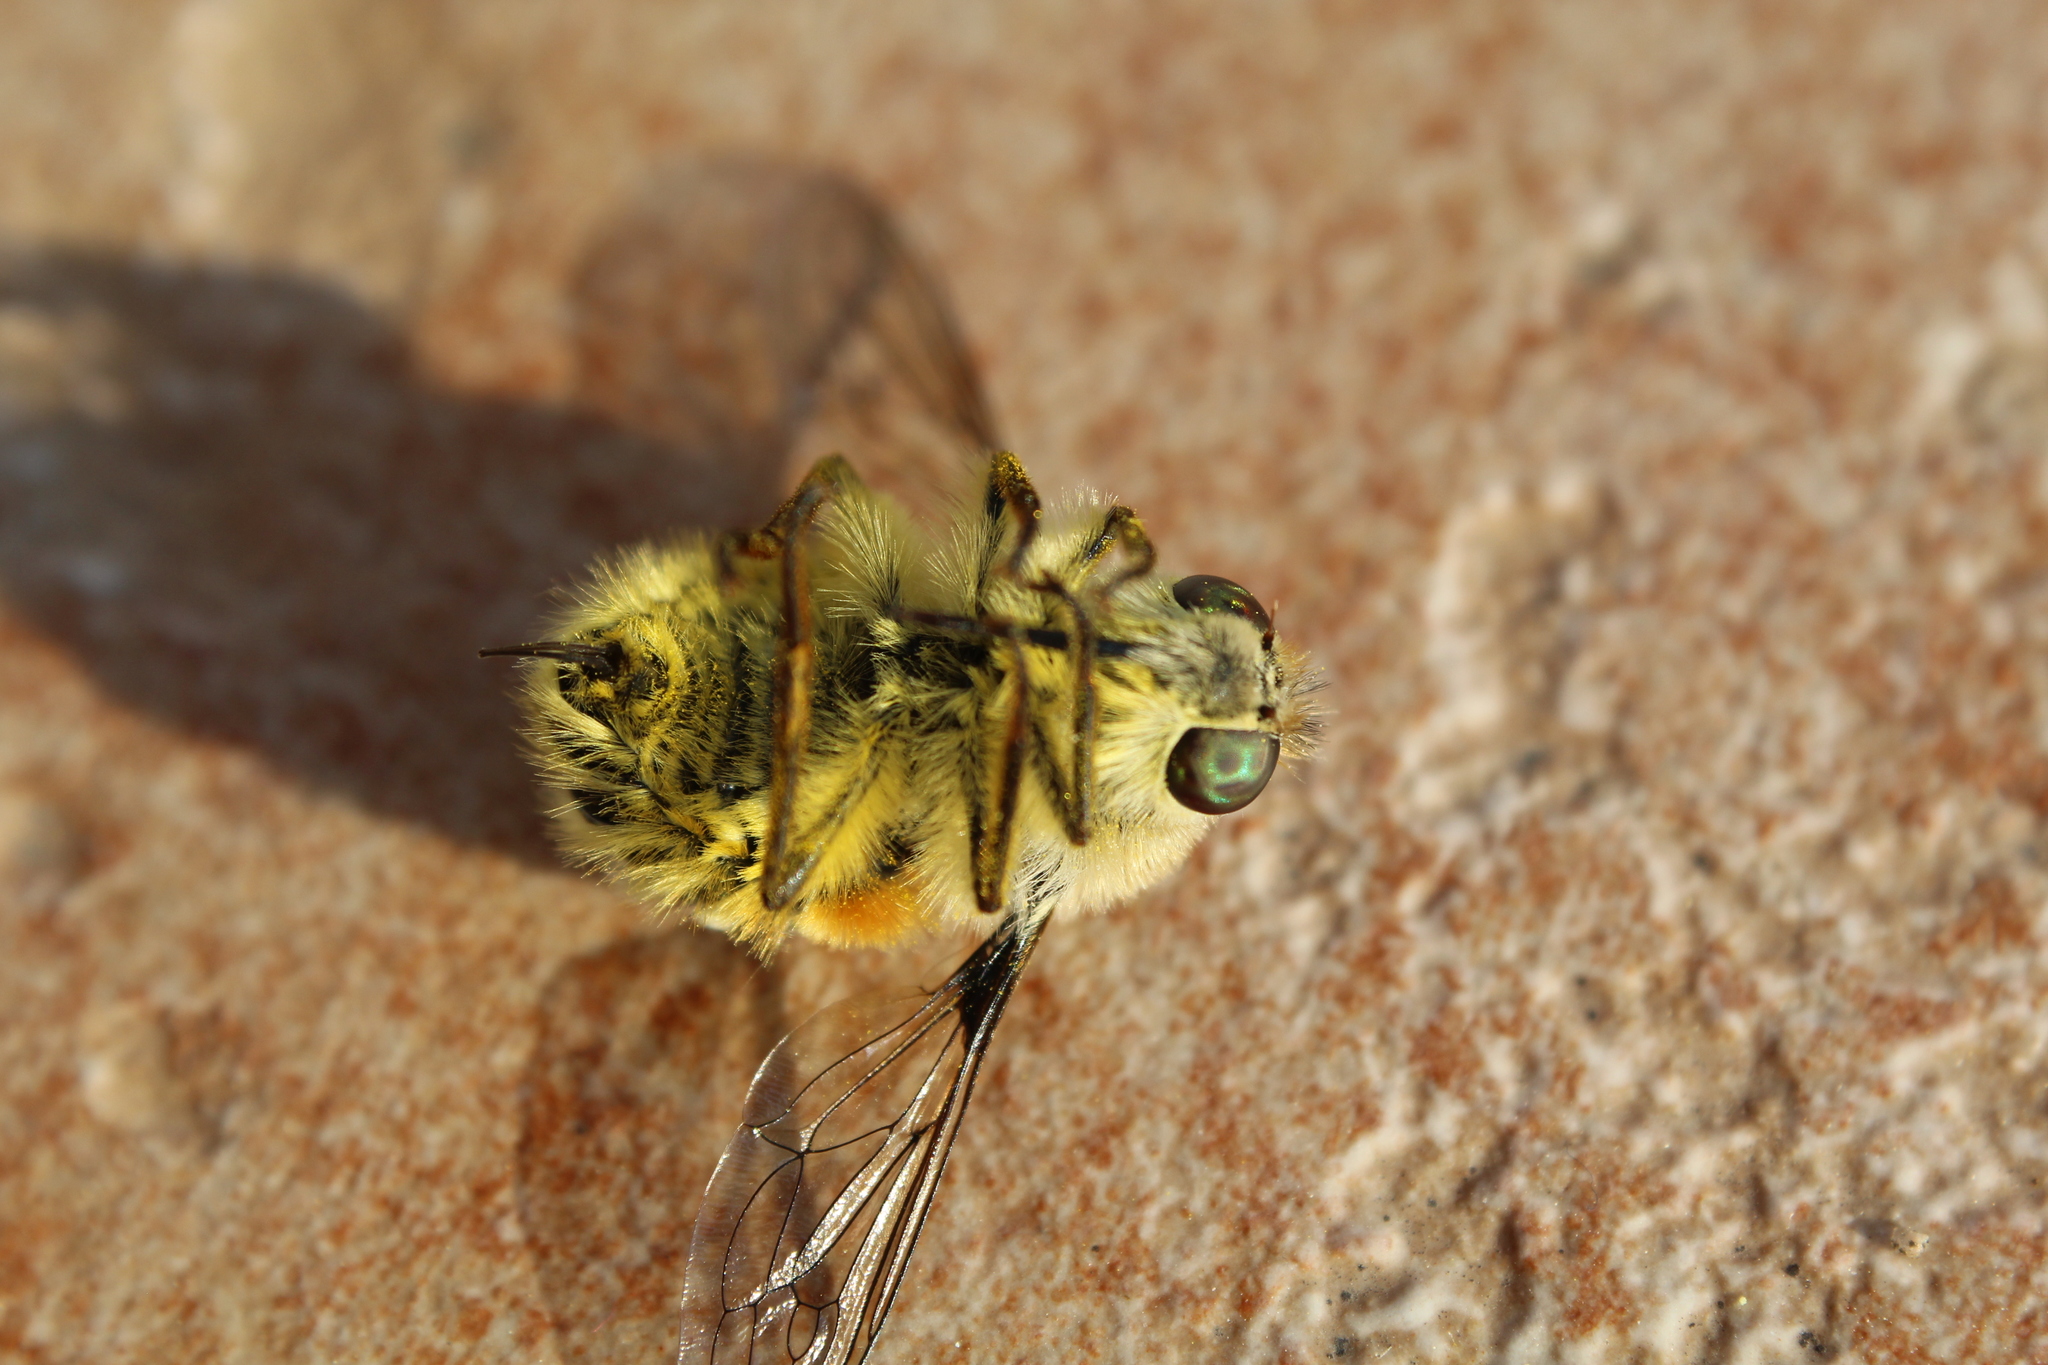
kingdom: Animalia
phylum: Arthropoda
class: Insecta
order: Diptera
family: Nemestrinidae
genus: Fallenia
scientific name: Fallenia fasciata
